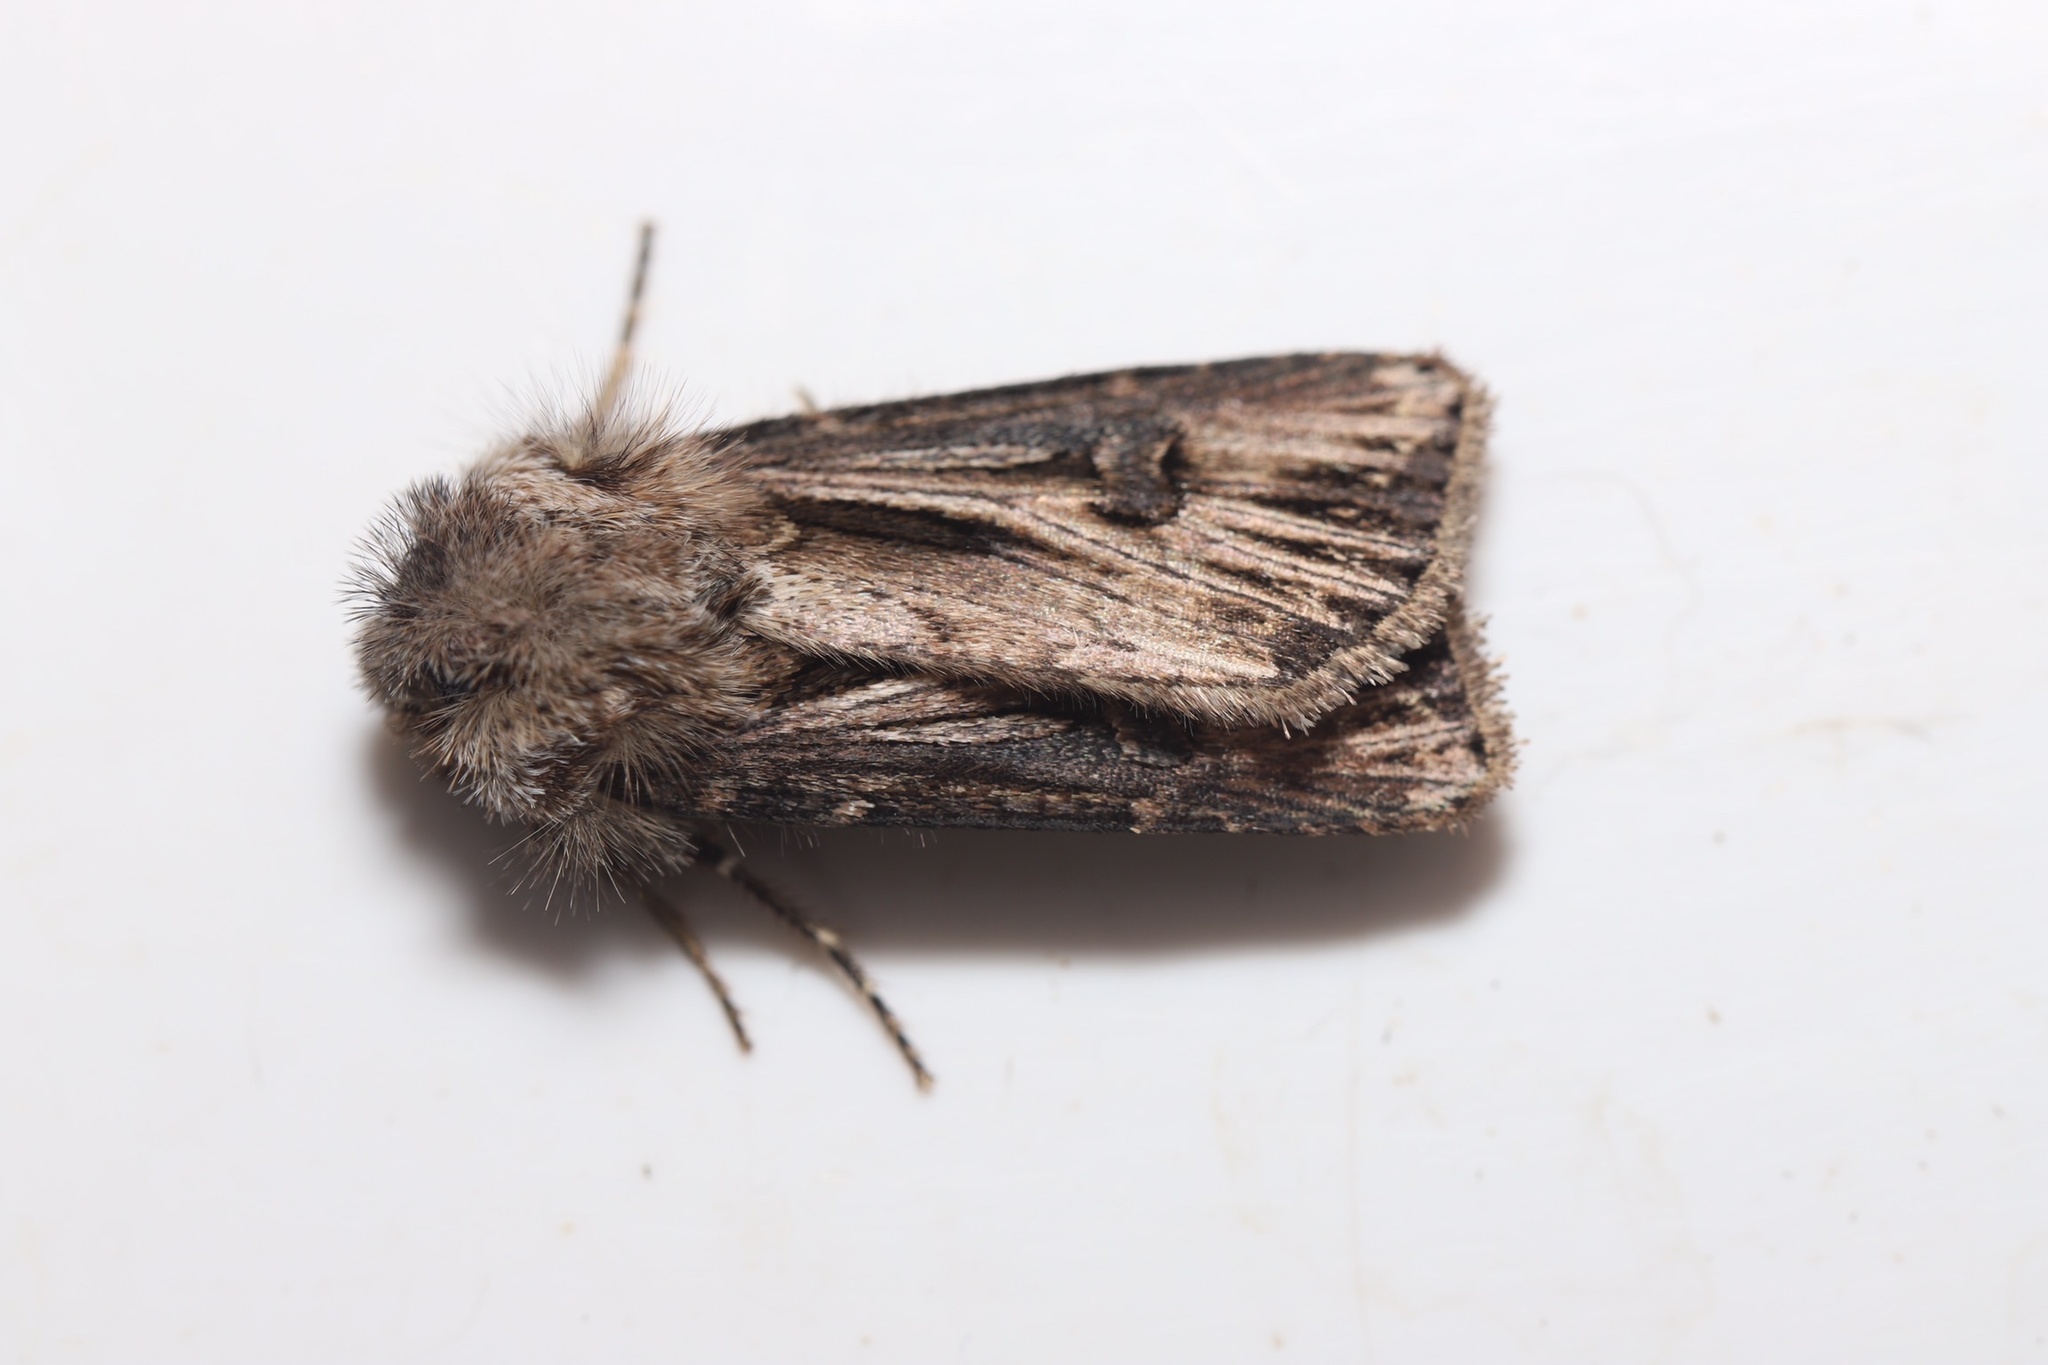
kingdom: Animalia
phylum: Arthropoda
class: Insecta
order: Lepidoptera
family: Noctuidae
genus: Agrotis
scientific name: Agrotis venerabilis
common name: Venerable dart
